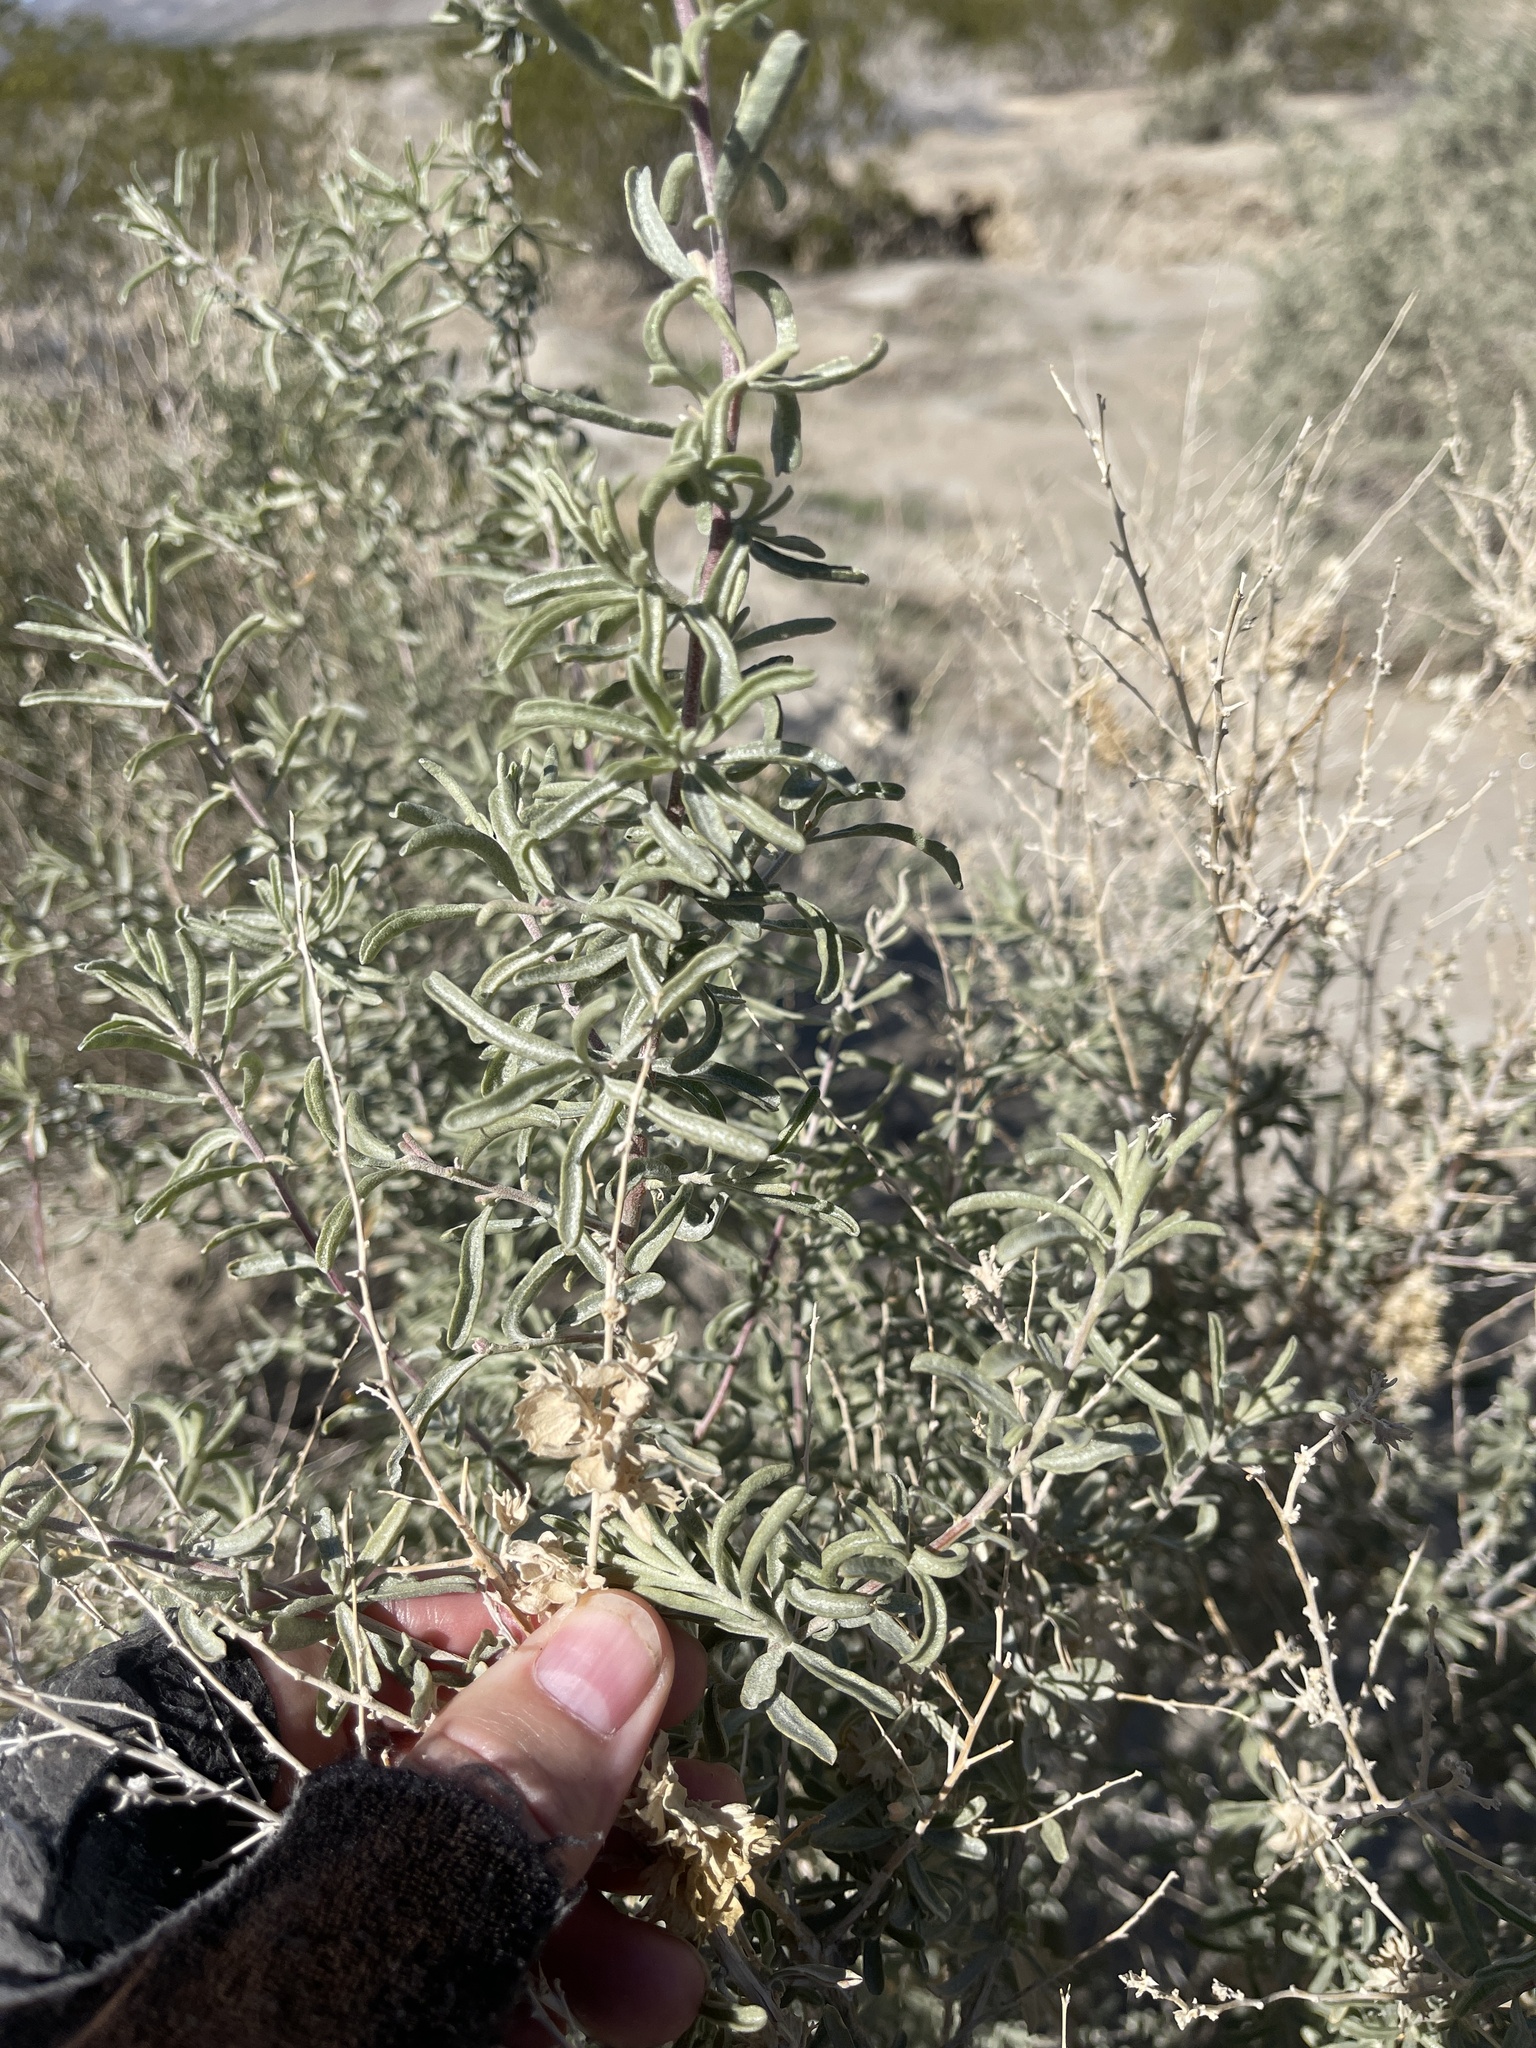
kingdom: Plantae
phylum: Tracheophyta
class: Magnoliopsida
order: Caryophyllales
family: Amaranthaceae
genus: Atriplex
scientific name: Atriplex canescens
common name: Four-wing saltbush
